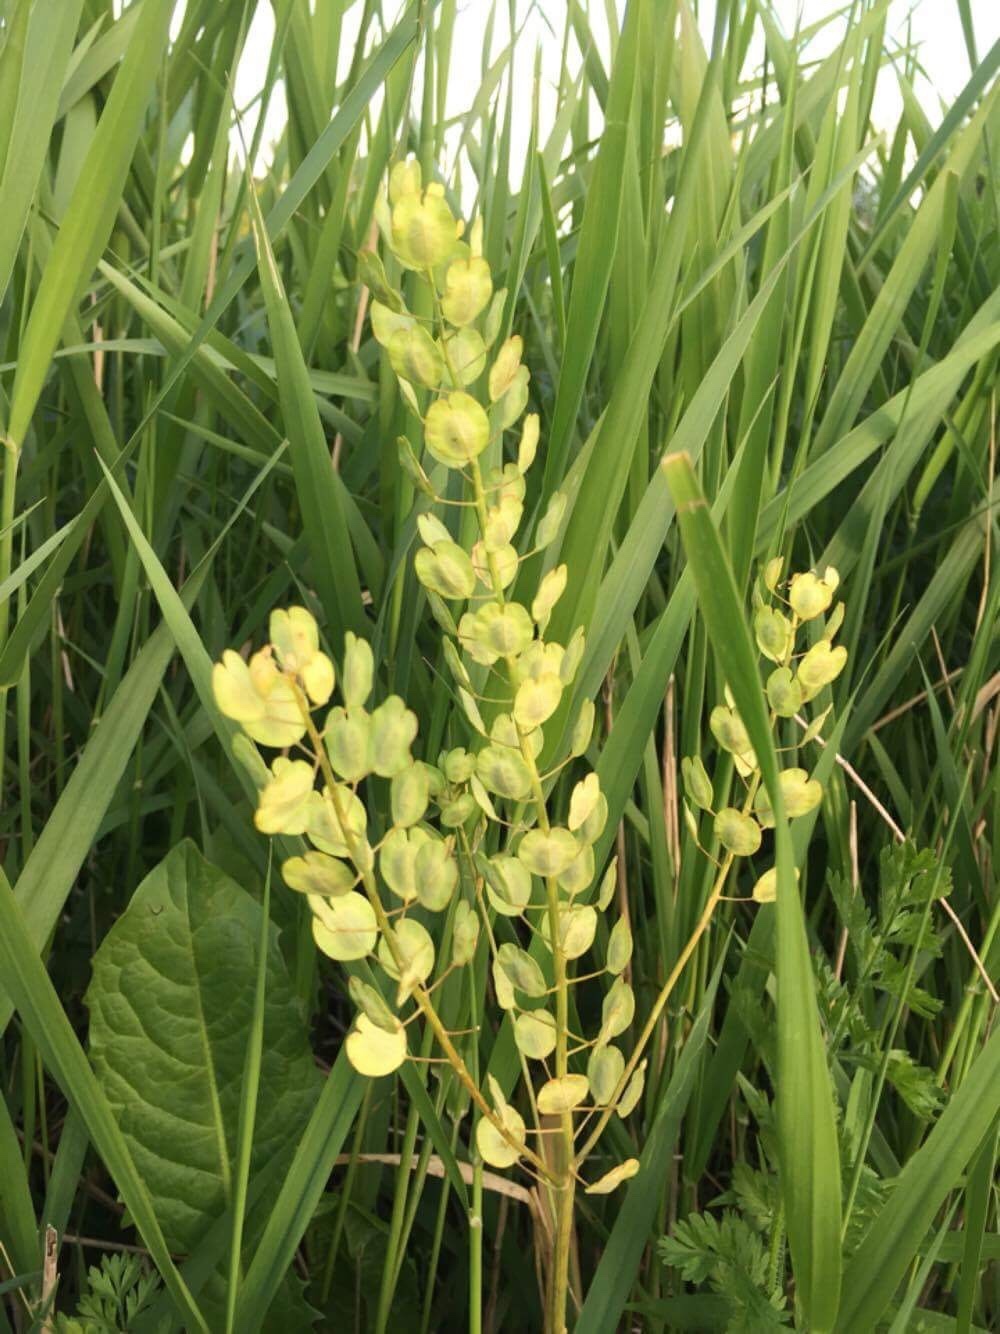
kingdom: Plantae
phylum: Tracheophyta
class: Magnoliopsida
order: Brassicales
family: Brassicaceae
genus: Thlaspi
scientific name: Thlaspi arvense
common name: Field pennycress
